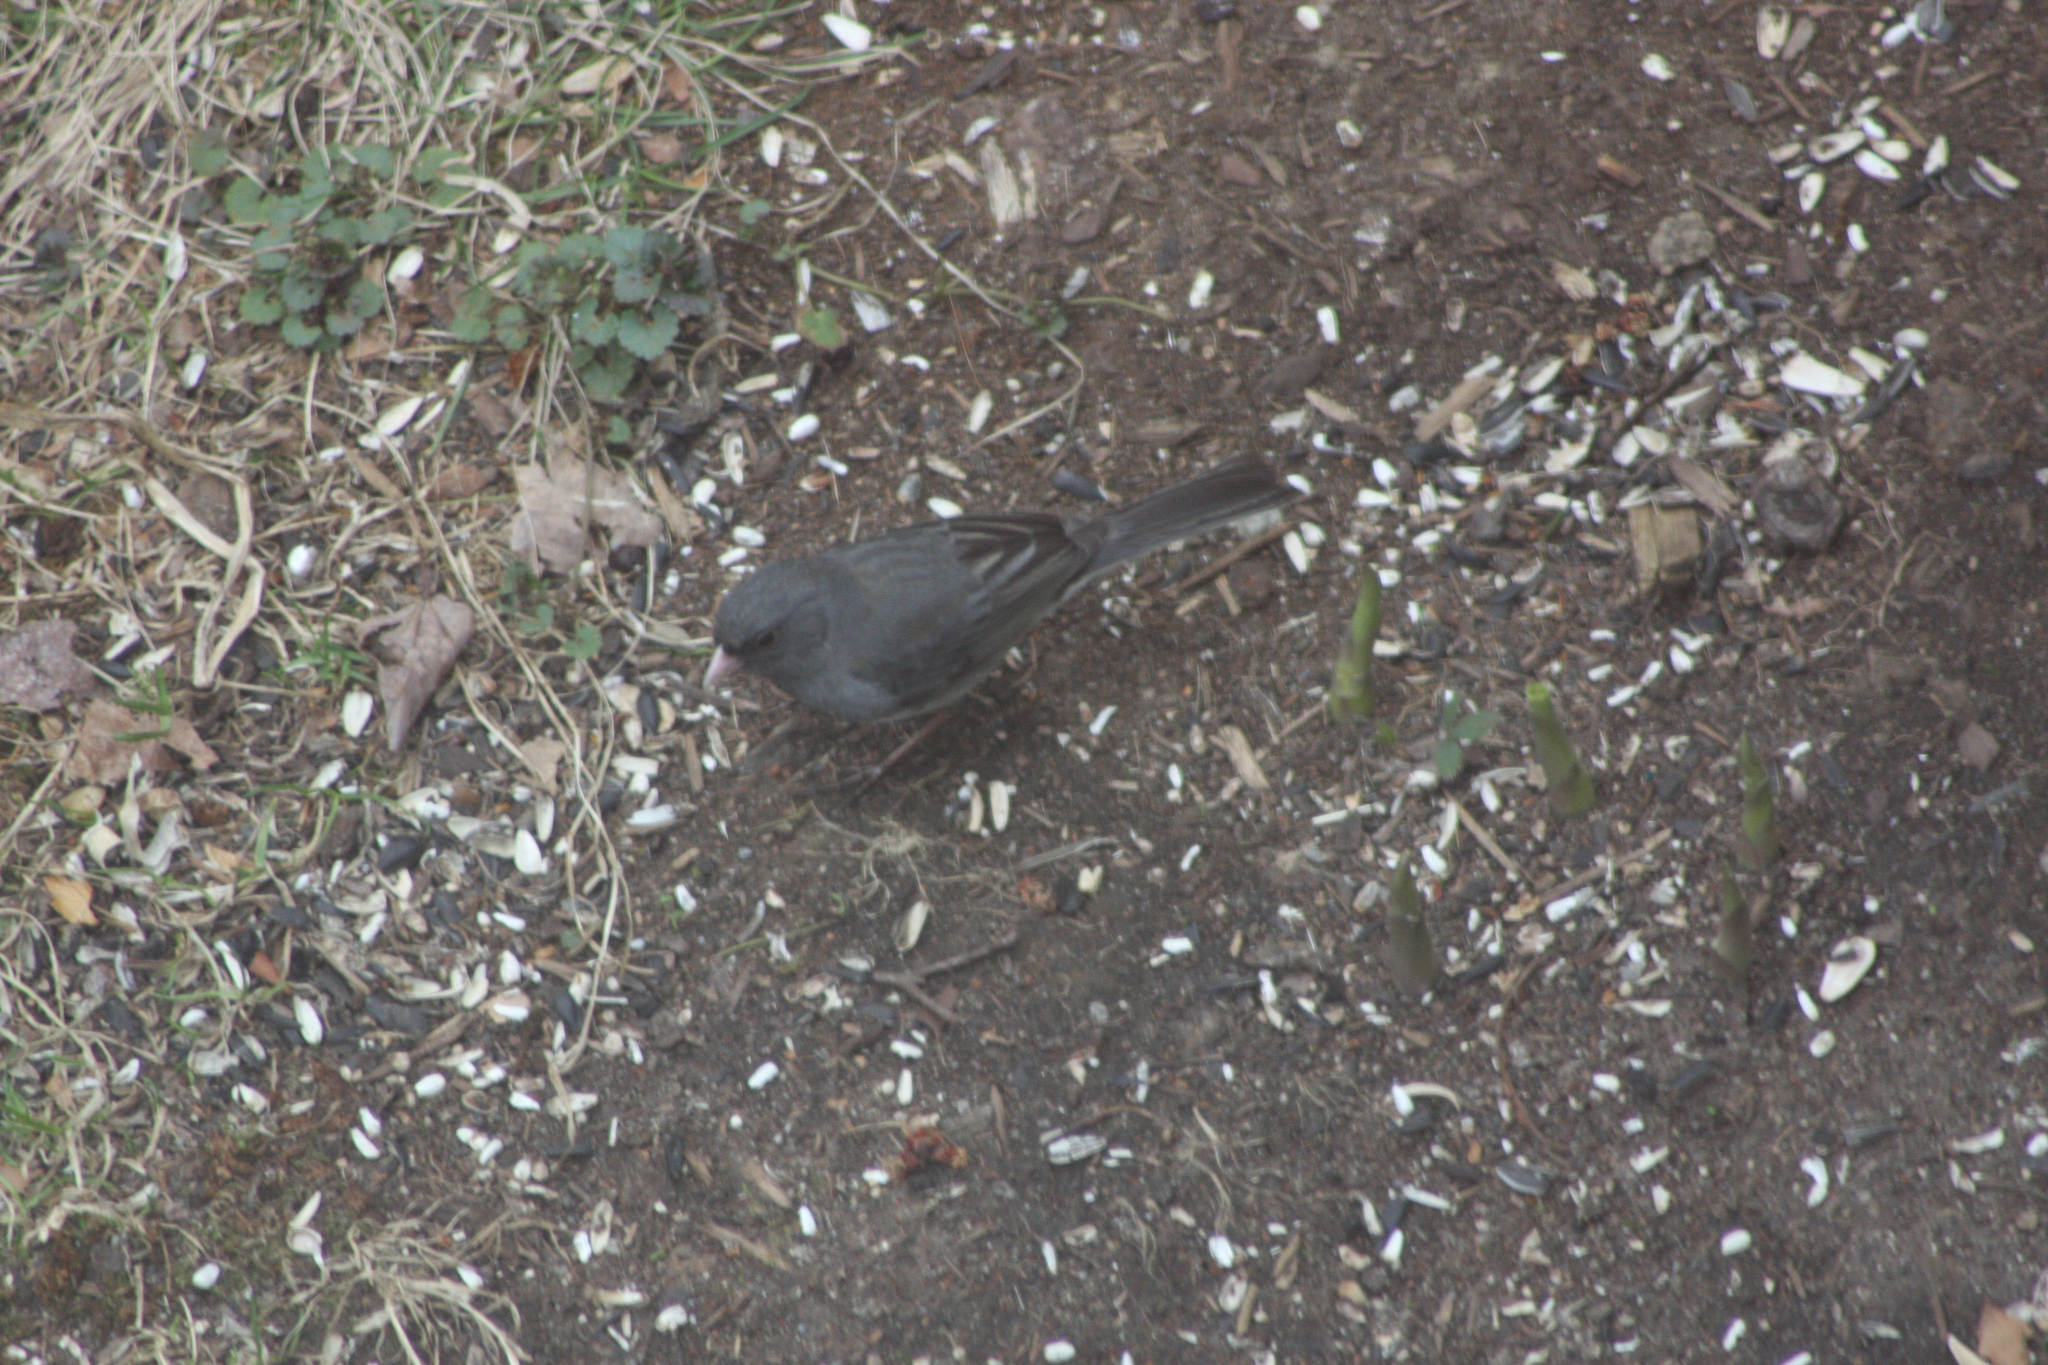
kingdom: Animalia
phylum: Chordata
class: Aves
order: Passeriformes
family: Passerellidae
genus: Junco
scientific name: Junco hyemalis
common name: Dark-eyed junco
